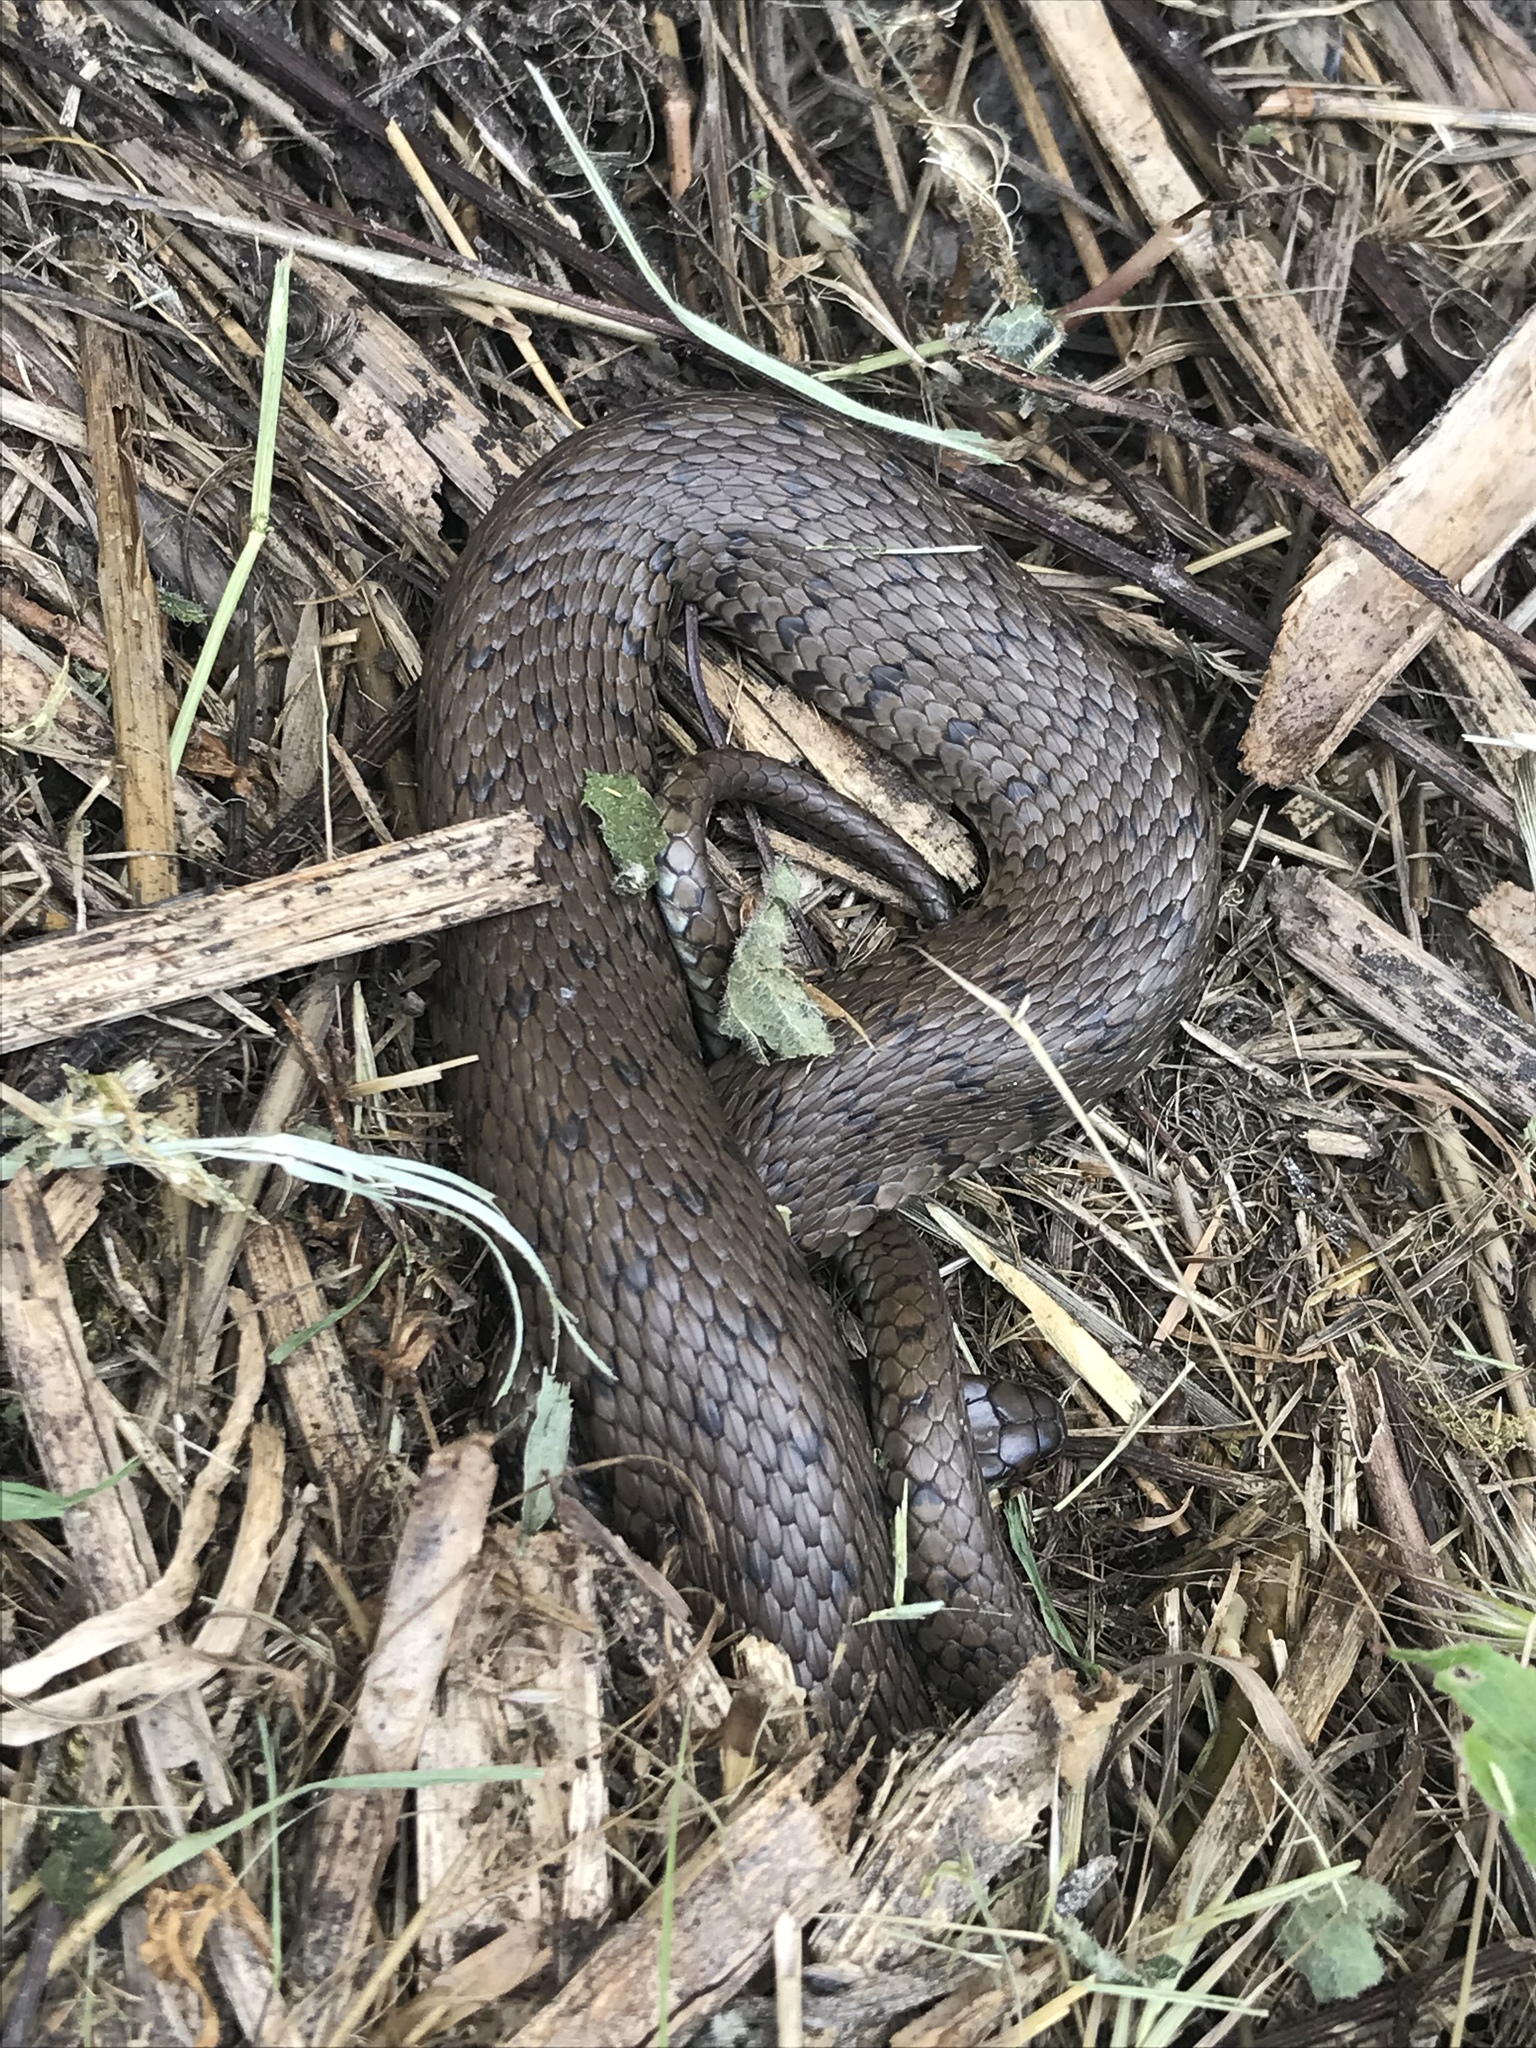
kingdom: Animalia
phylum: Chordata
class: Squamata
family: Colubridae
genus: Natrix
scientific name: Natrix helvetica
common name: Banded grass snake
